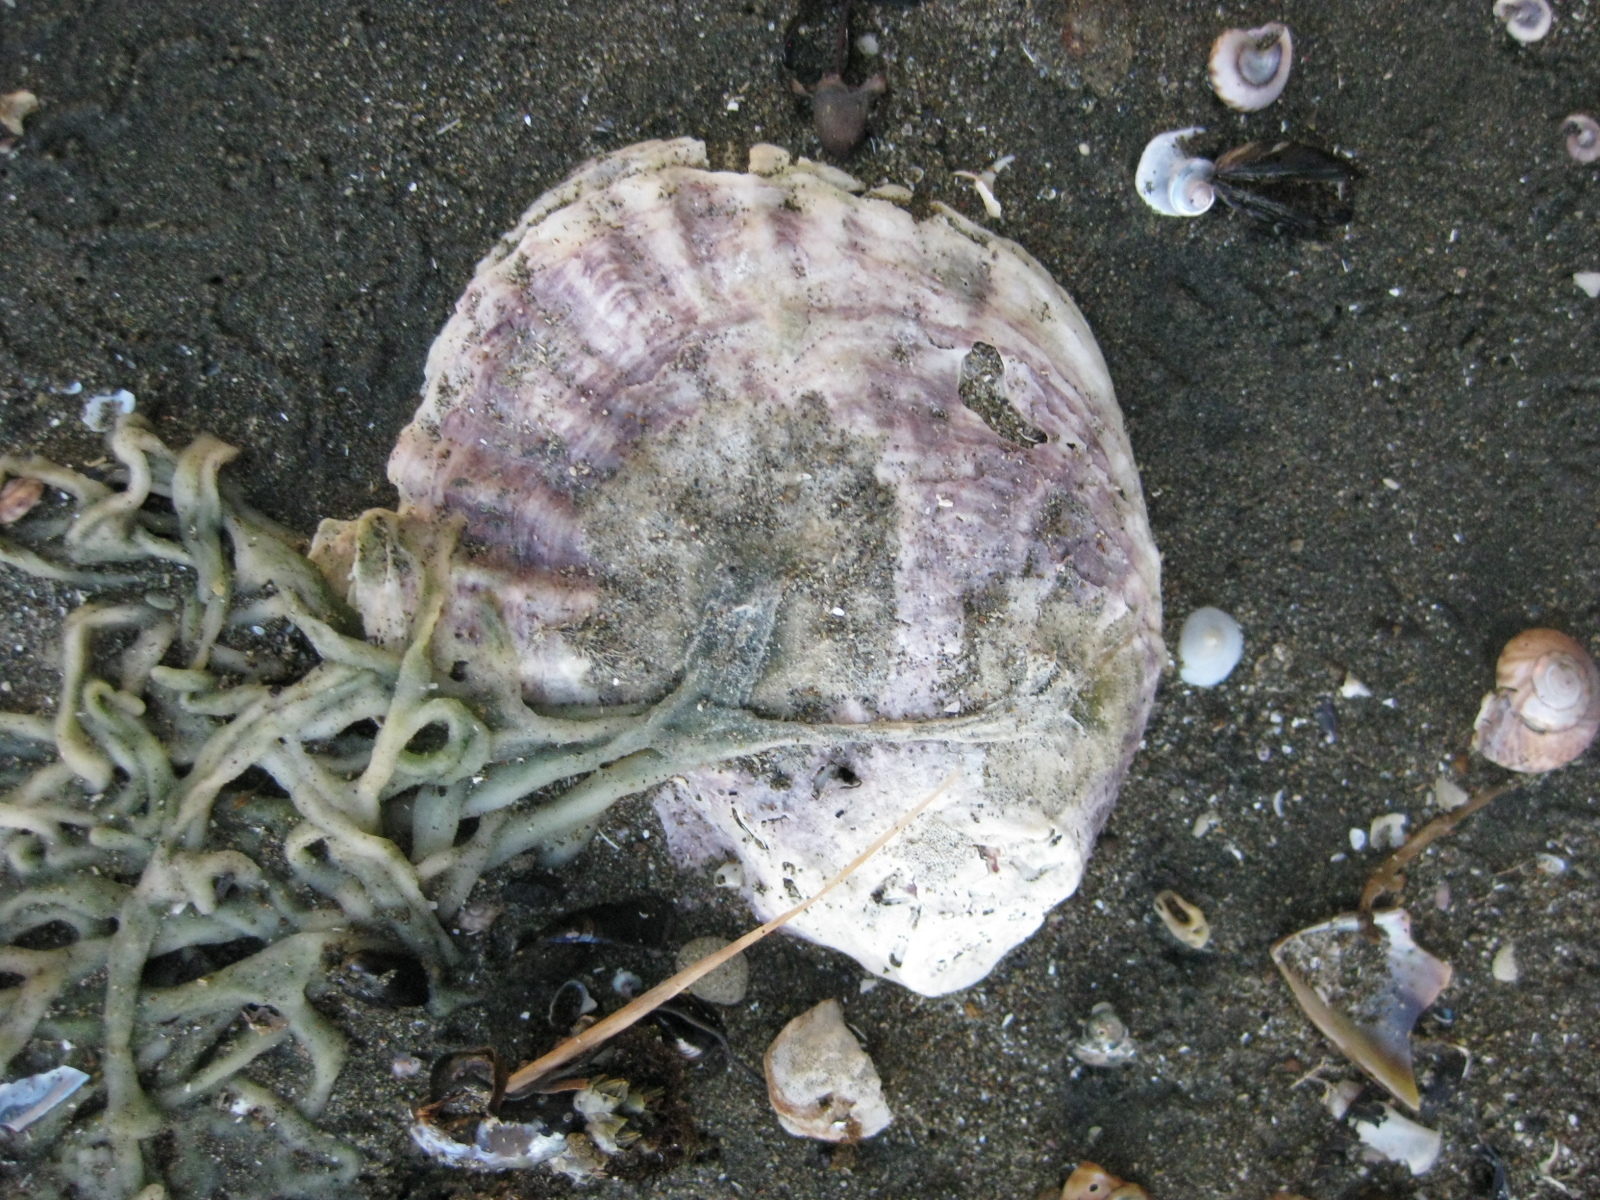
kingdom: Animalia
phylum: Mollusca
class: Bivalvia
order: Ostreida
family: Ostreidae
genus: Ostrea
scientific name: Ostrea chilensis
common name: Chilean oyster
